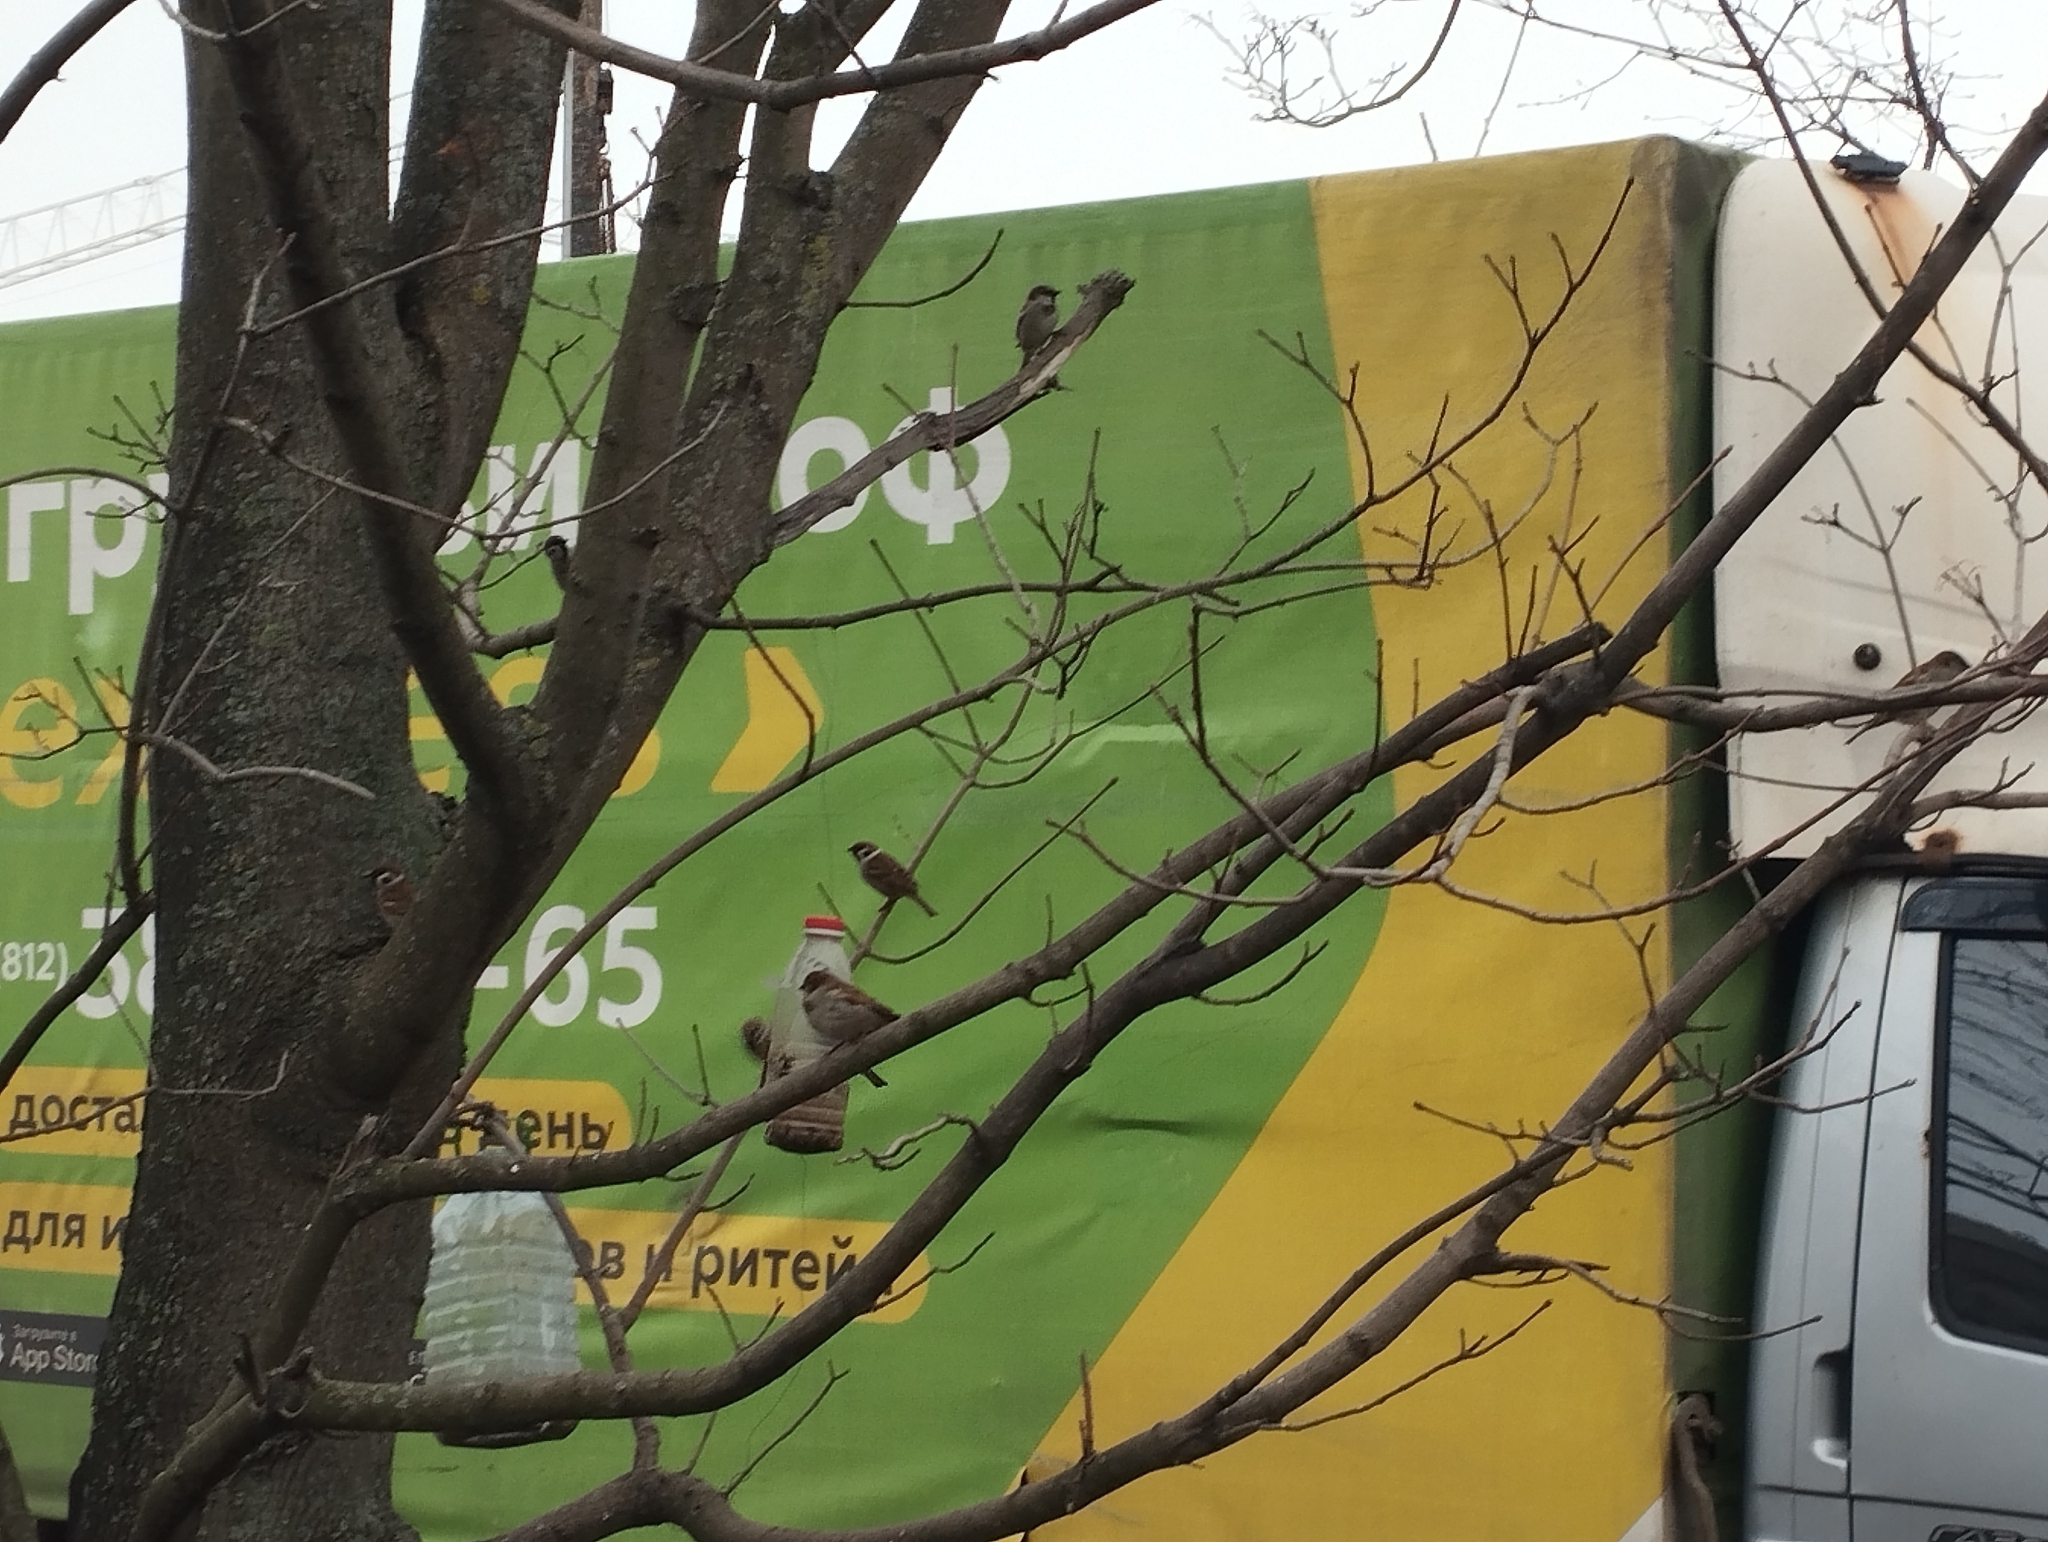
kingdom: Animalia
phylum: Chordata
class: Aves
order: Passeriformes
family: Passeridae
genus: Passer
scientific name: Passer montanus
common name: Eurasian tree sparrow
